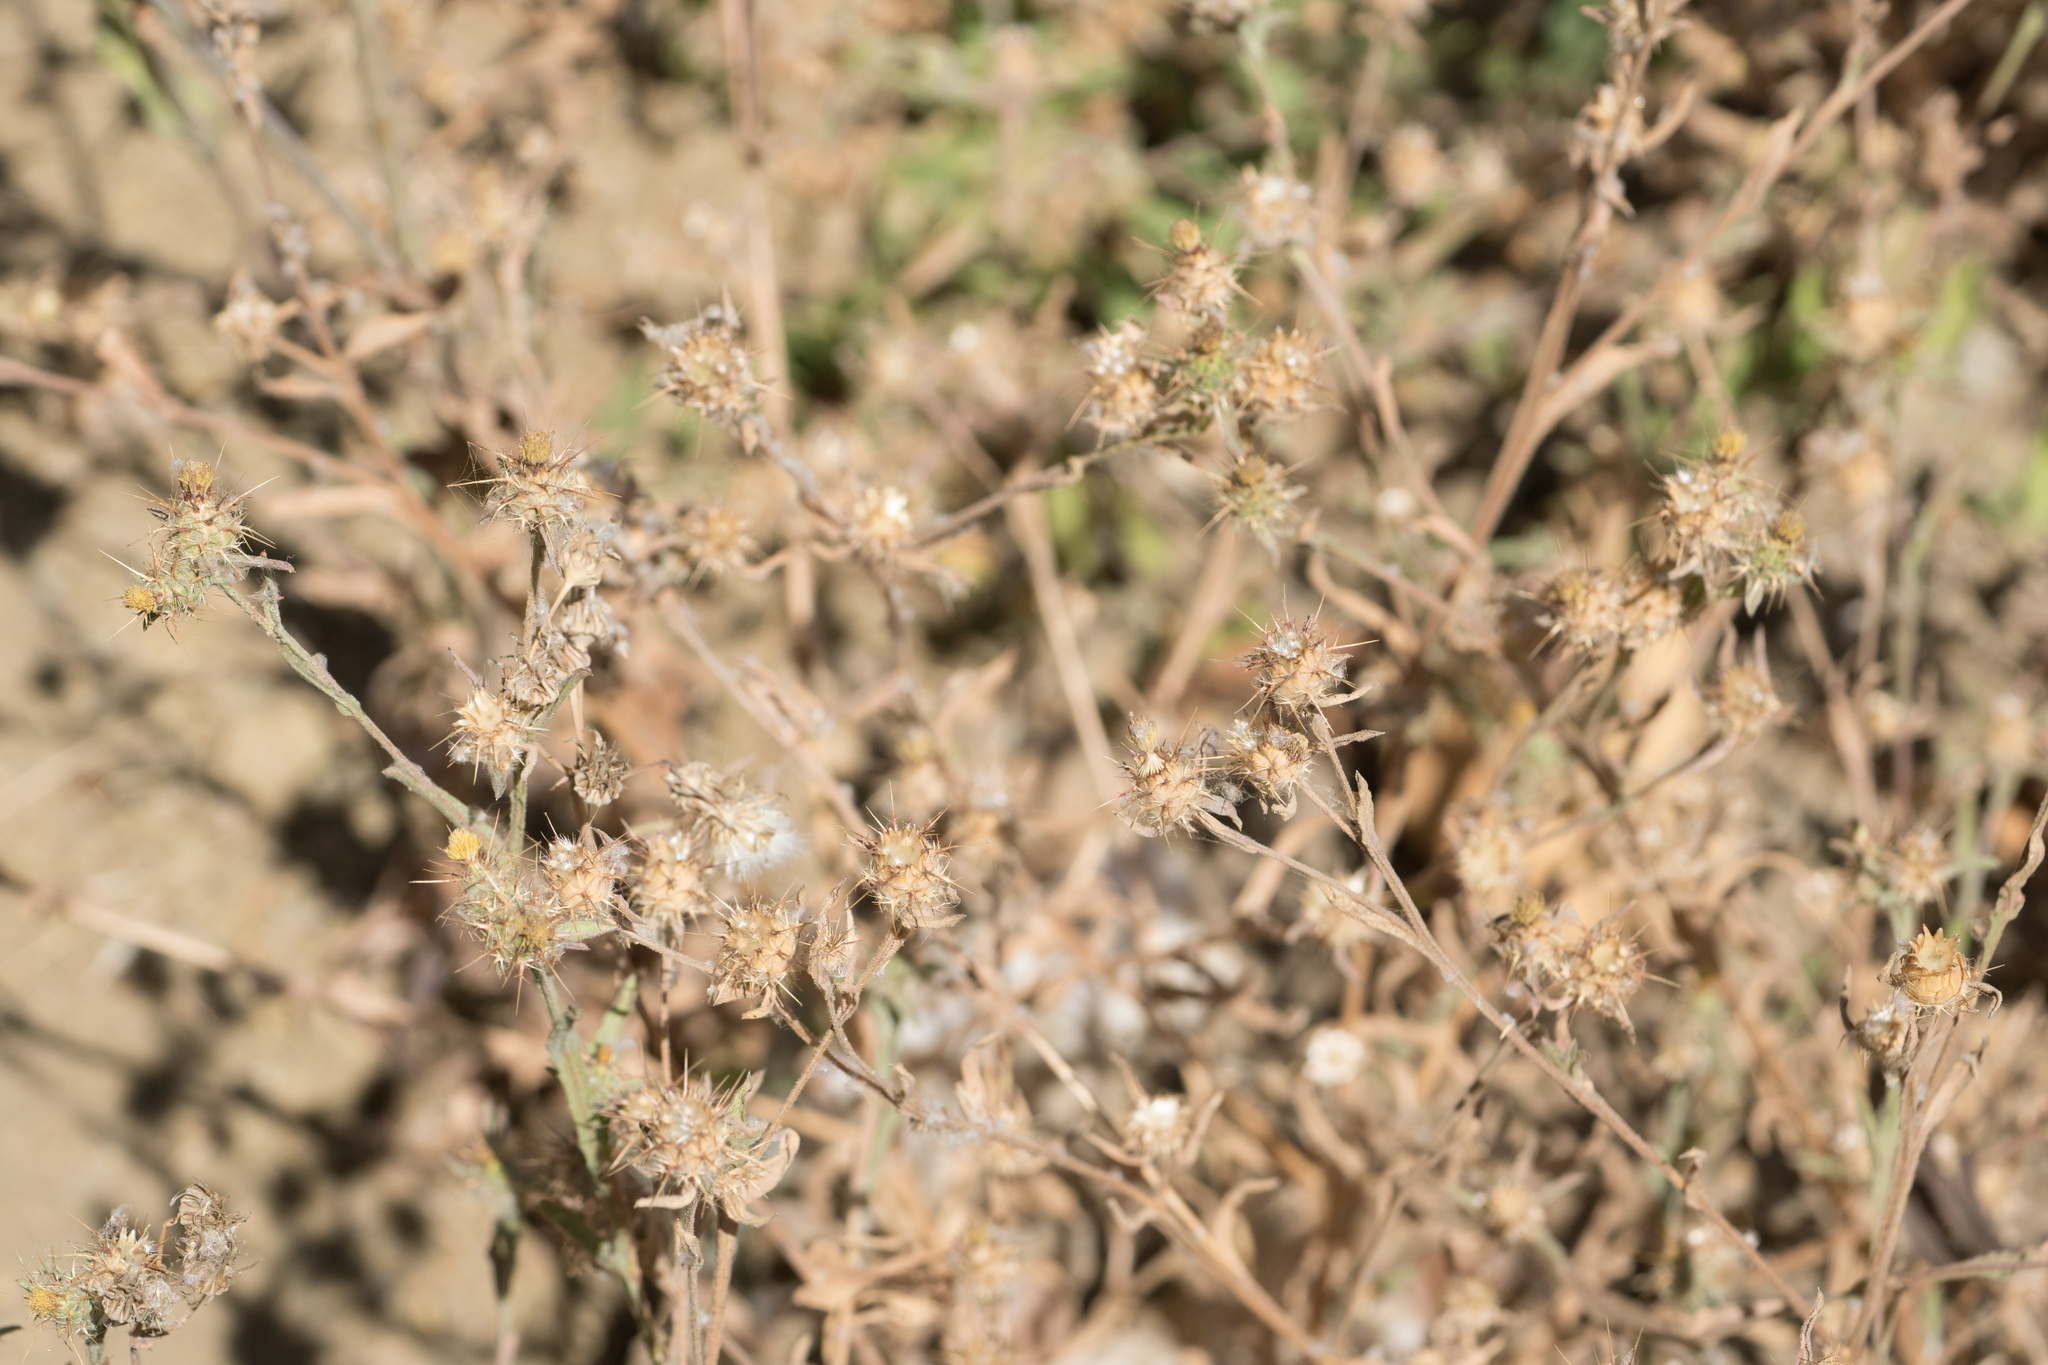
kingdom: Plantae
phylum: Tracheophyta
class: Magnoliopsida
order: Asterales
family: Asteraceae
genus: Centaurea
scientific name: Centaurea melitensis
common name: Maltese star-thistle
